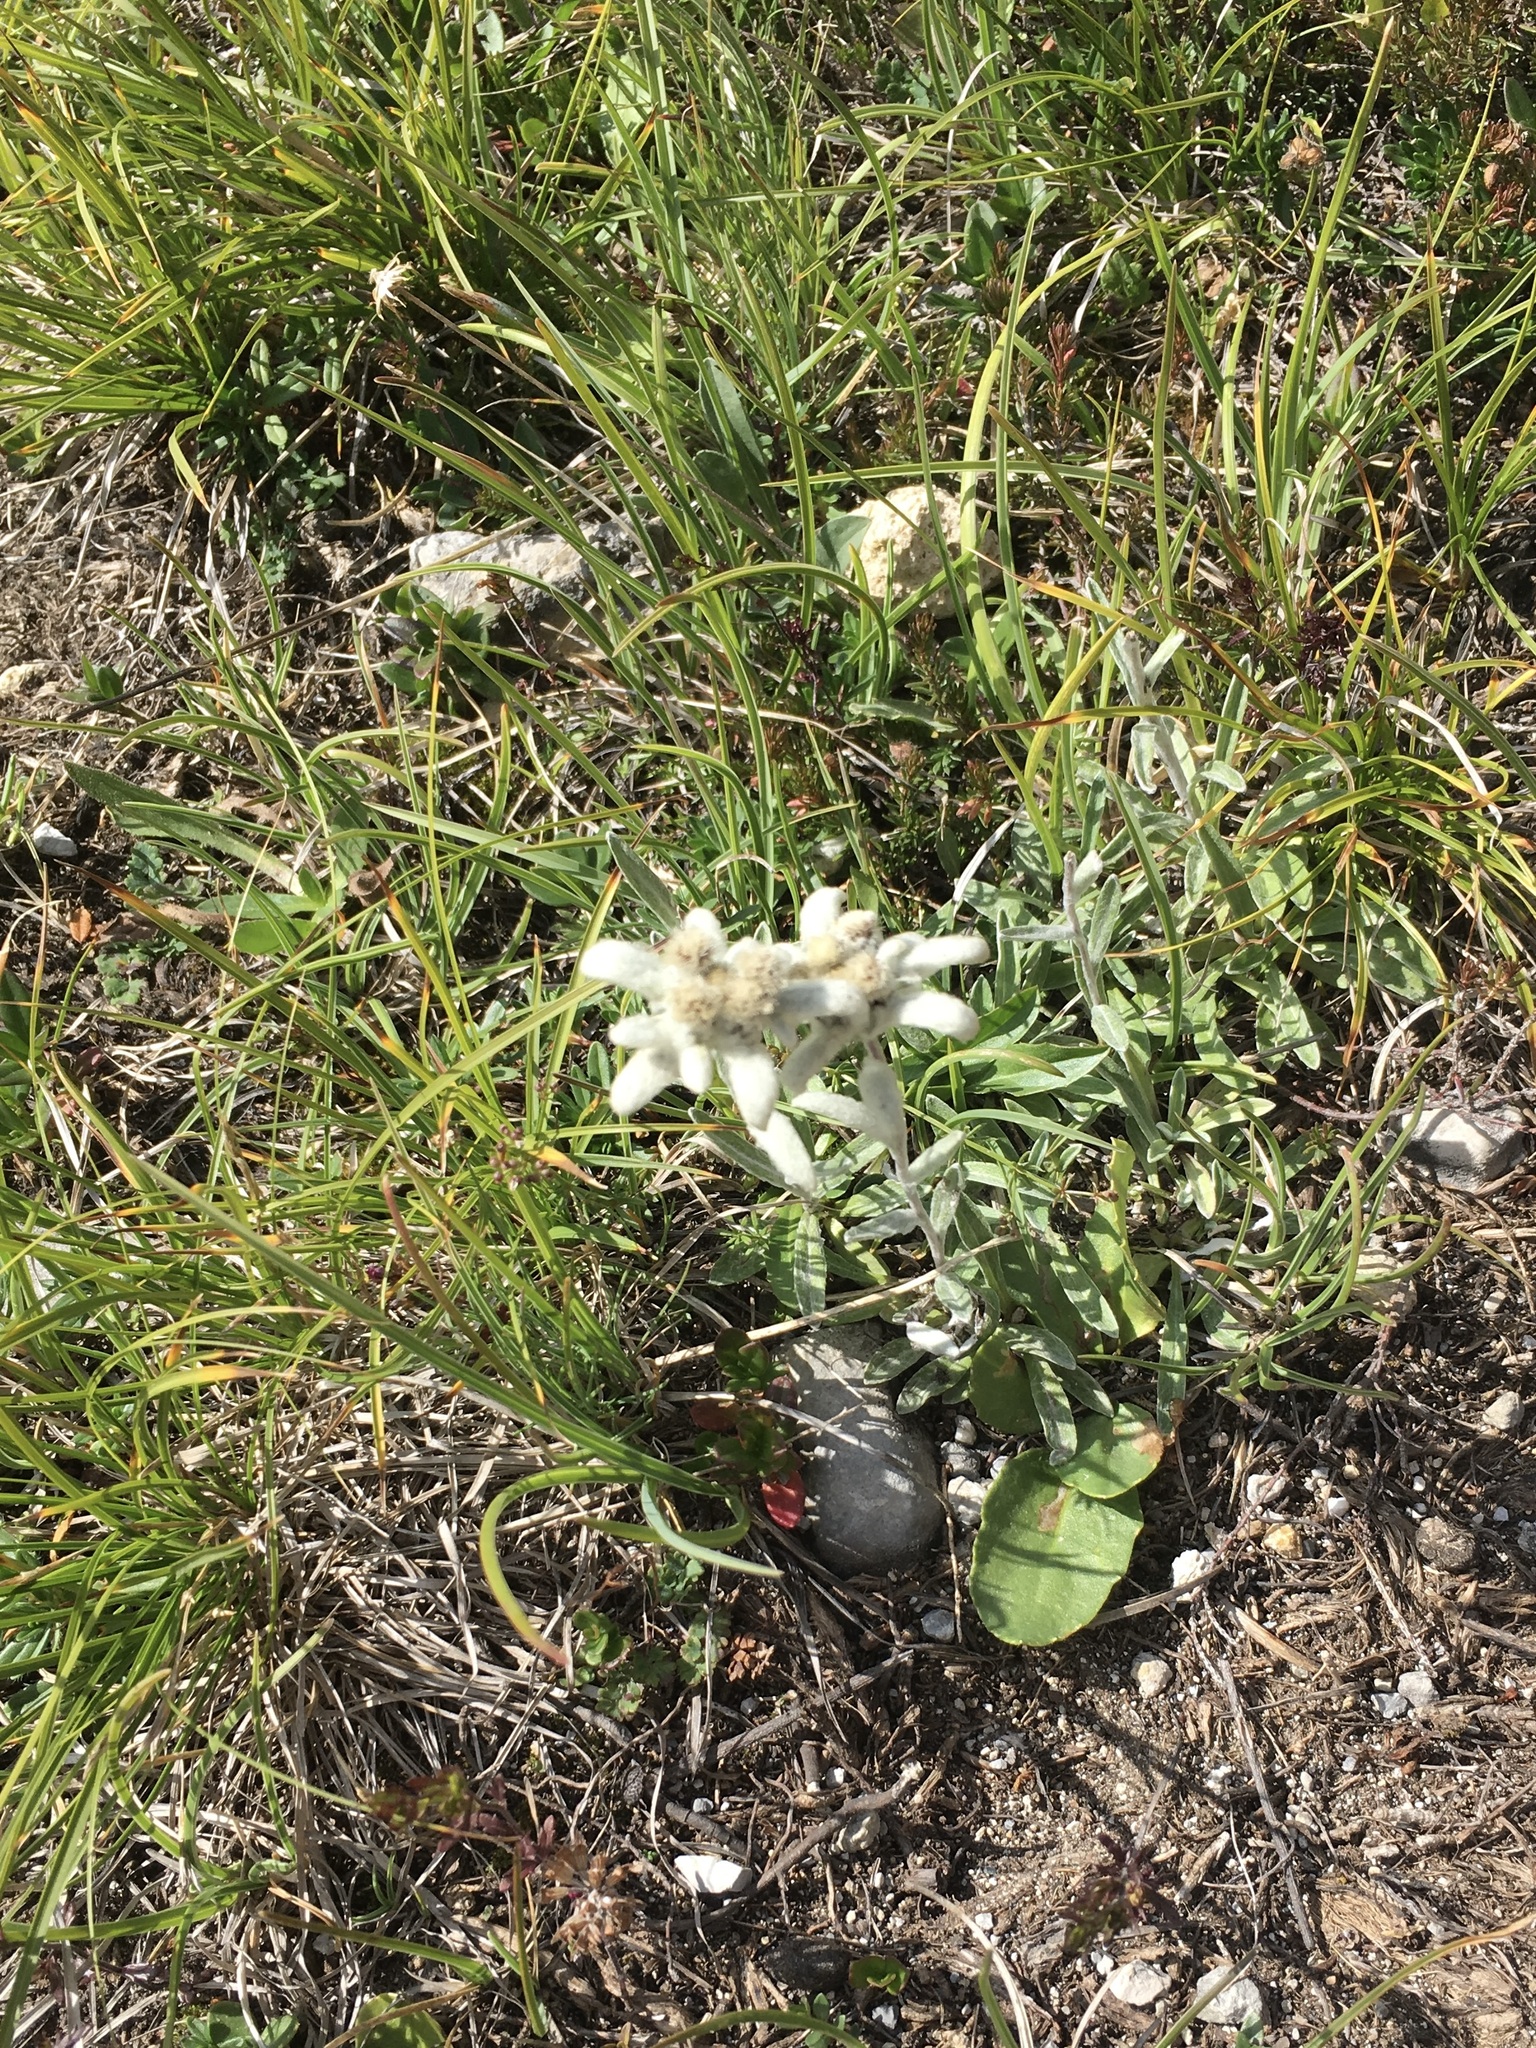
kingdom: Plantae
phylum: Tracheophyta
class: Magnoliopsida
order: Asterales
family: Asteraceae
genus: Leontopodium
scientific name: Leontopodium nivale
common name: Edelweiss
